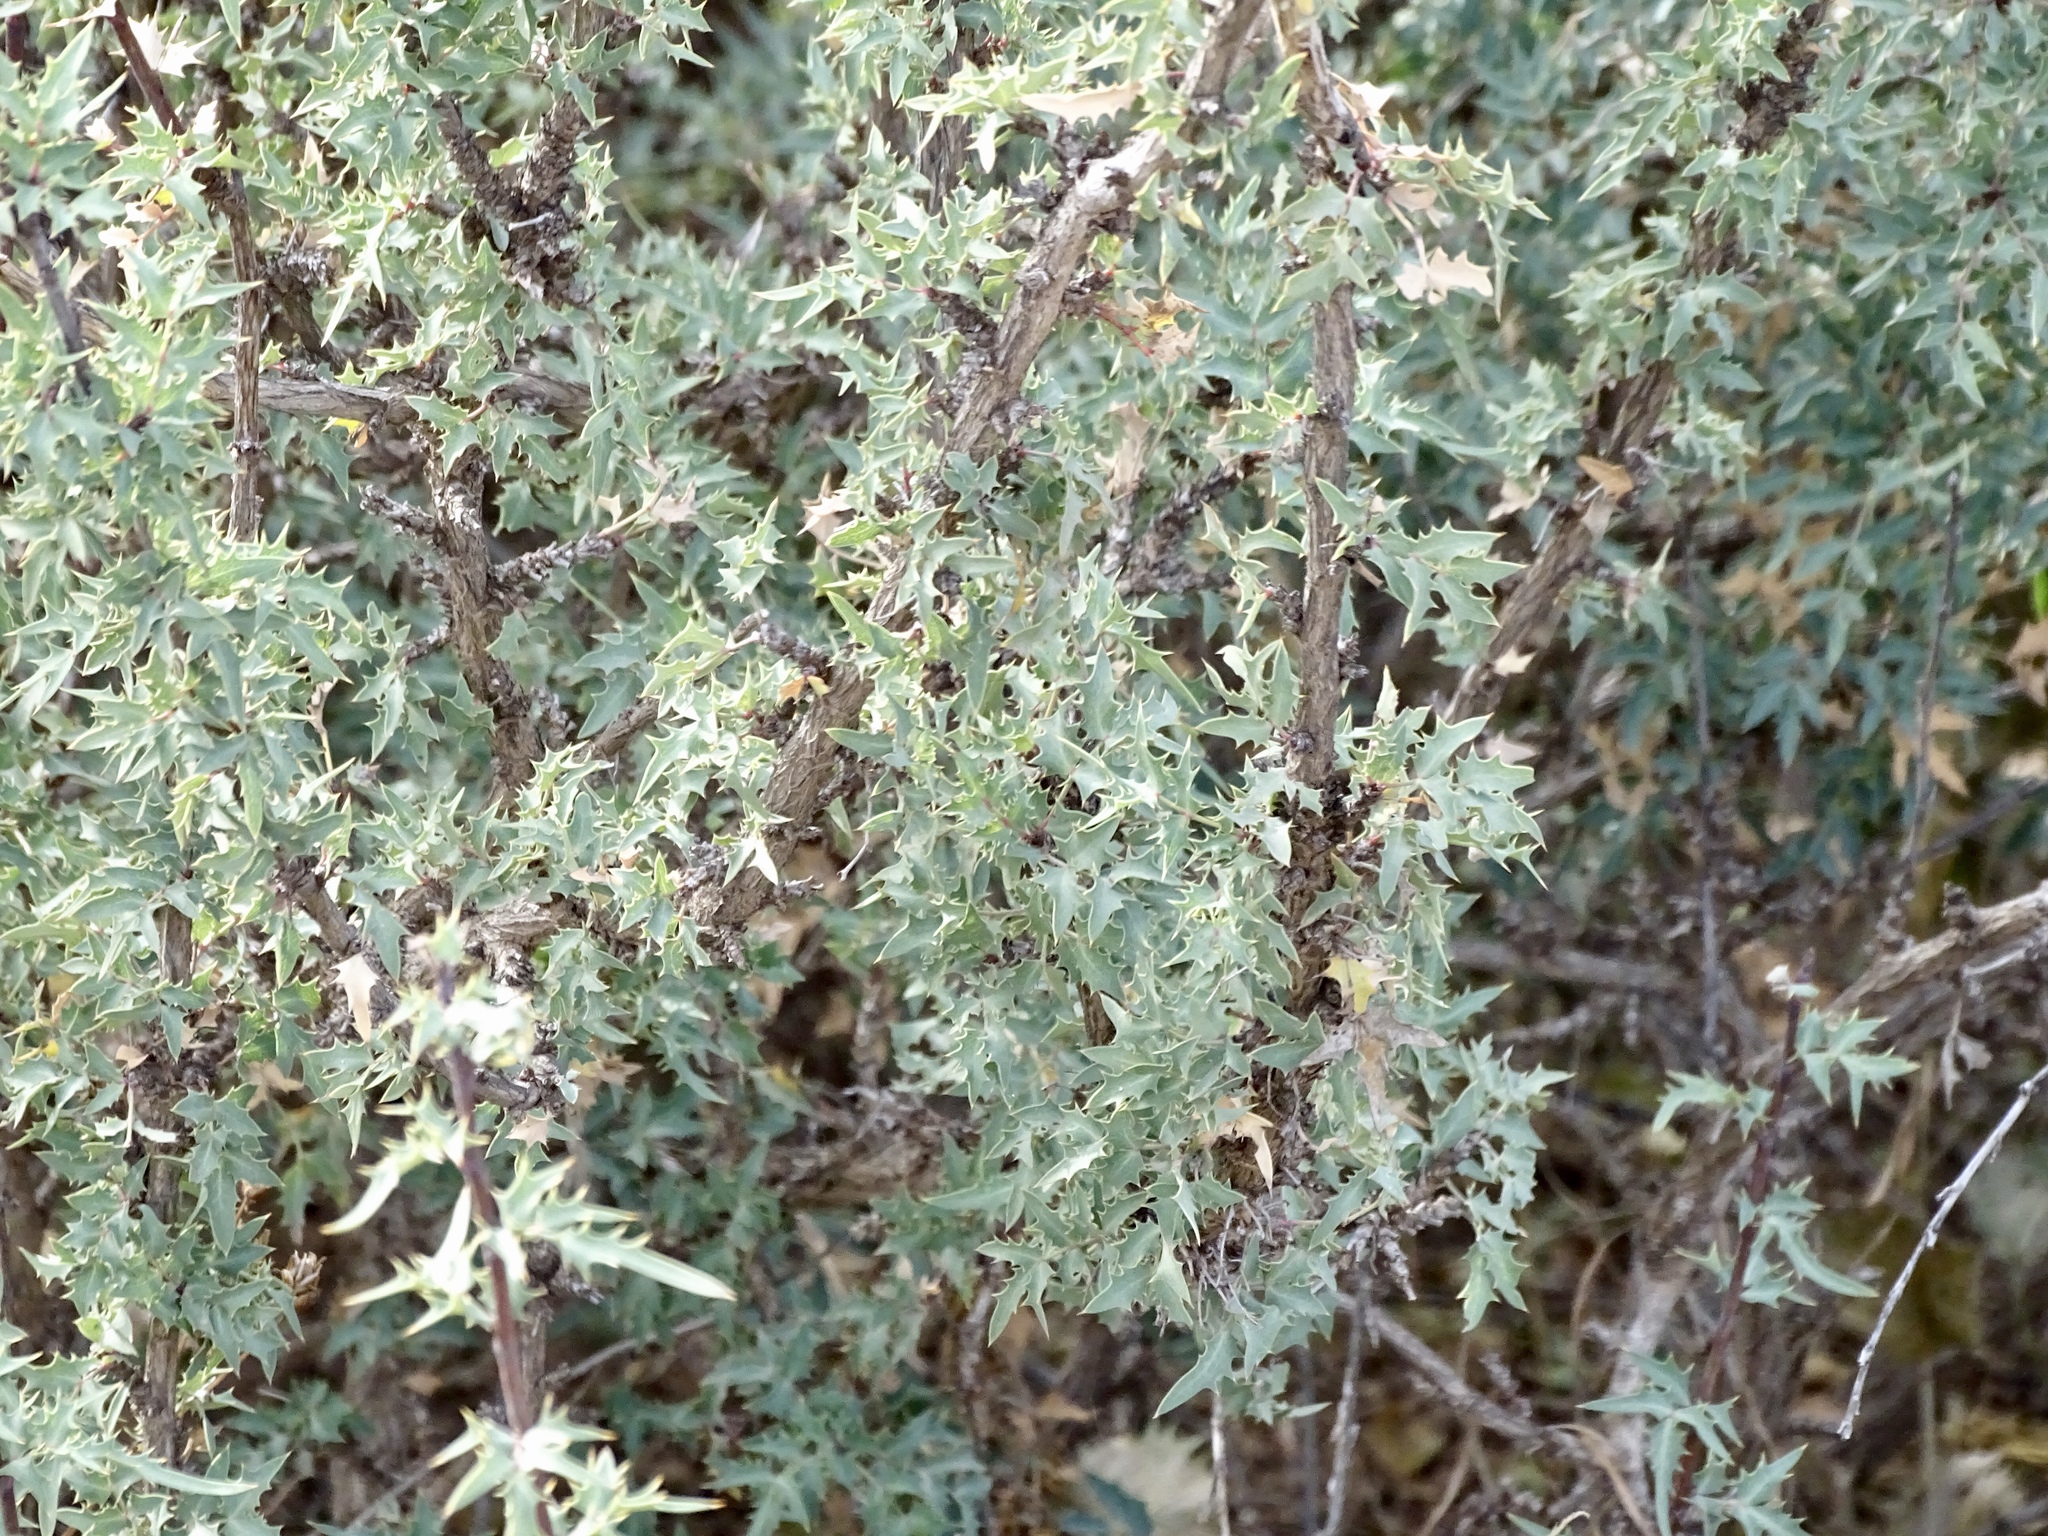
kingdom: Plantae
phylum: Tracheophyta
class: Magnoliopsida
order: Ranunculales
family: Berberidaceae
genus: Alloberberis
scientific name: Alloberberis haematocarpa
